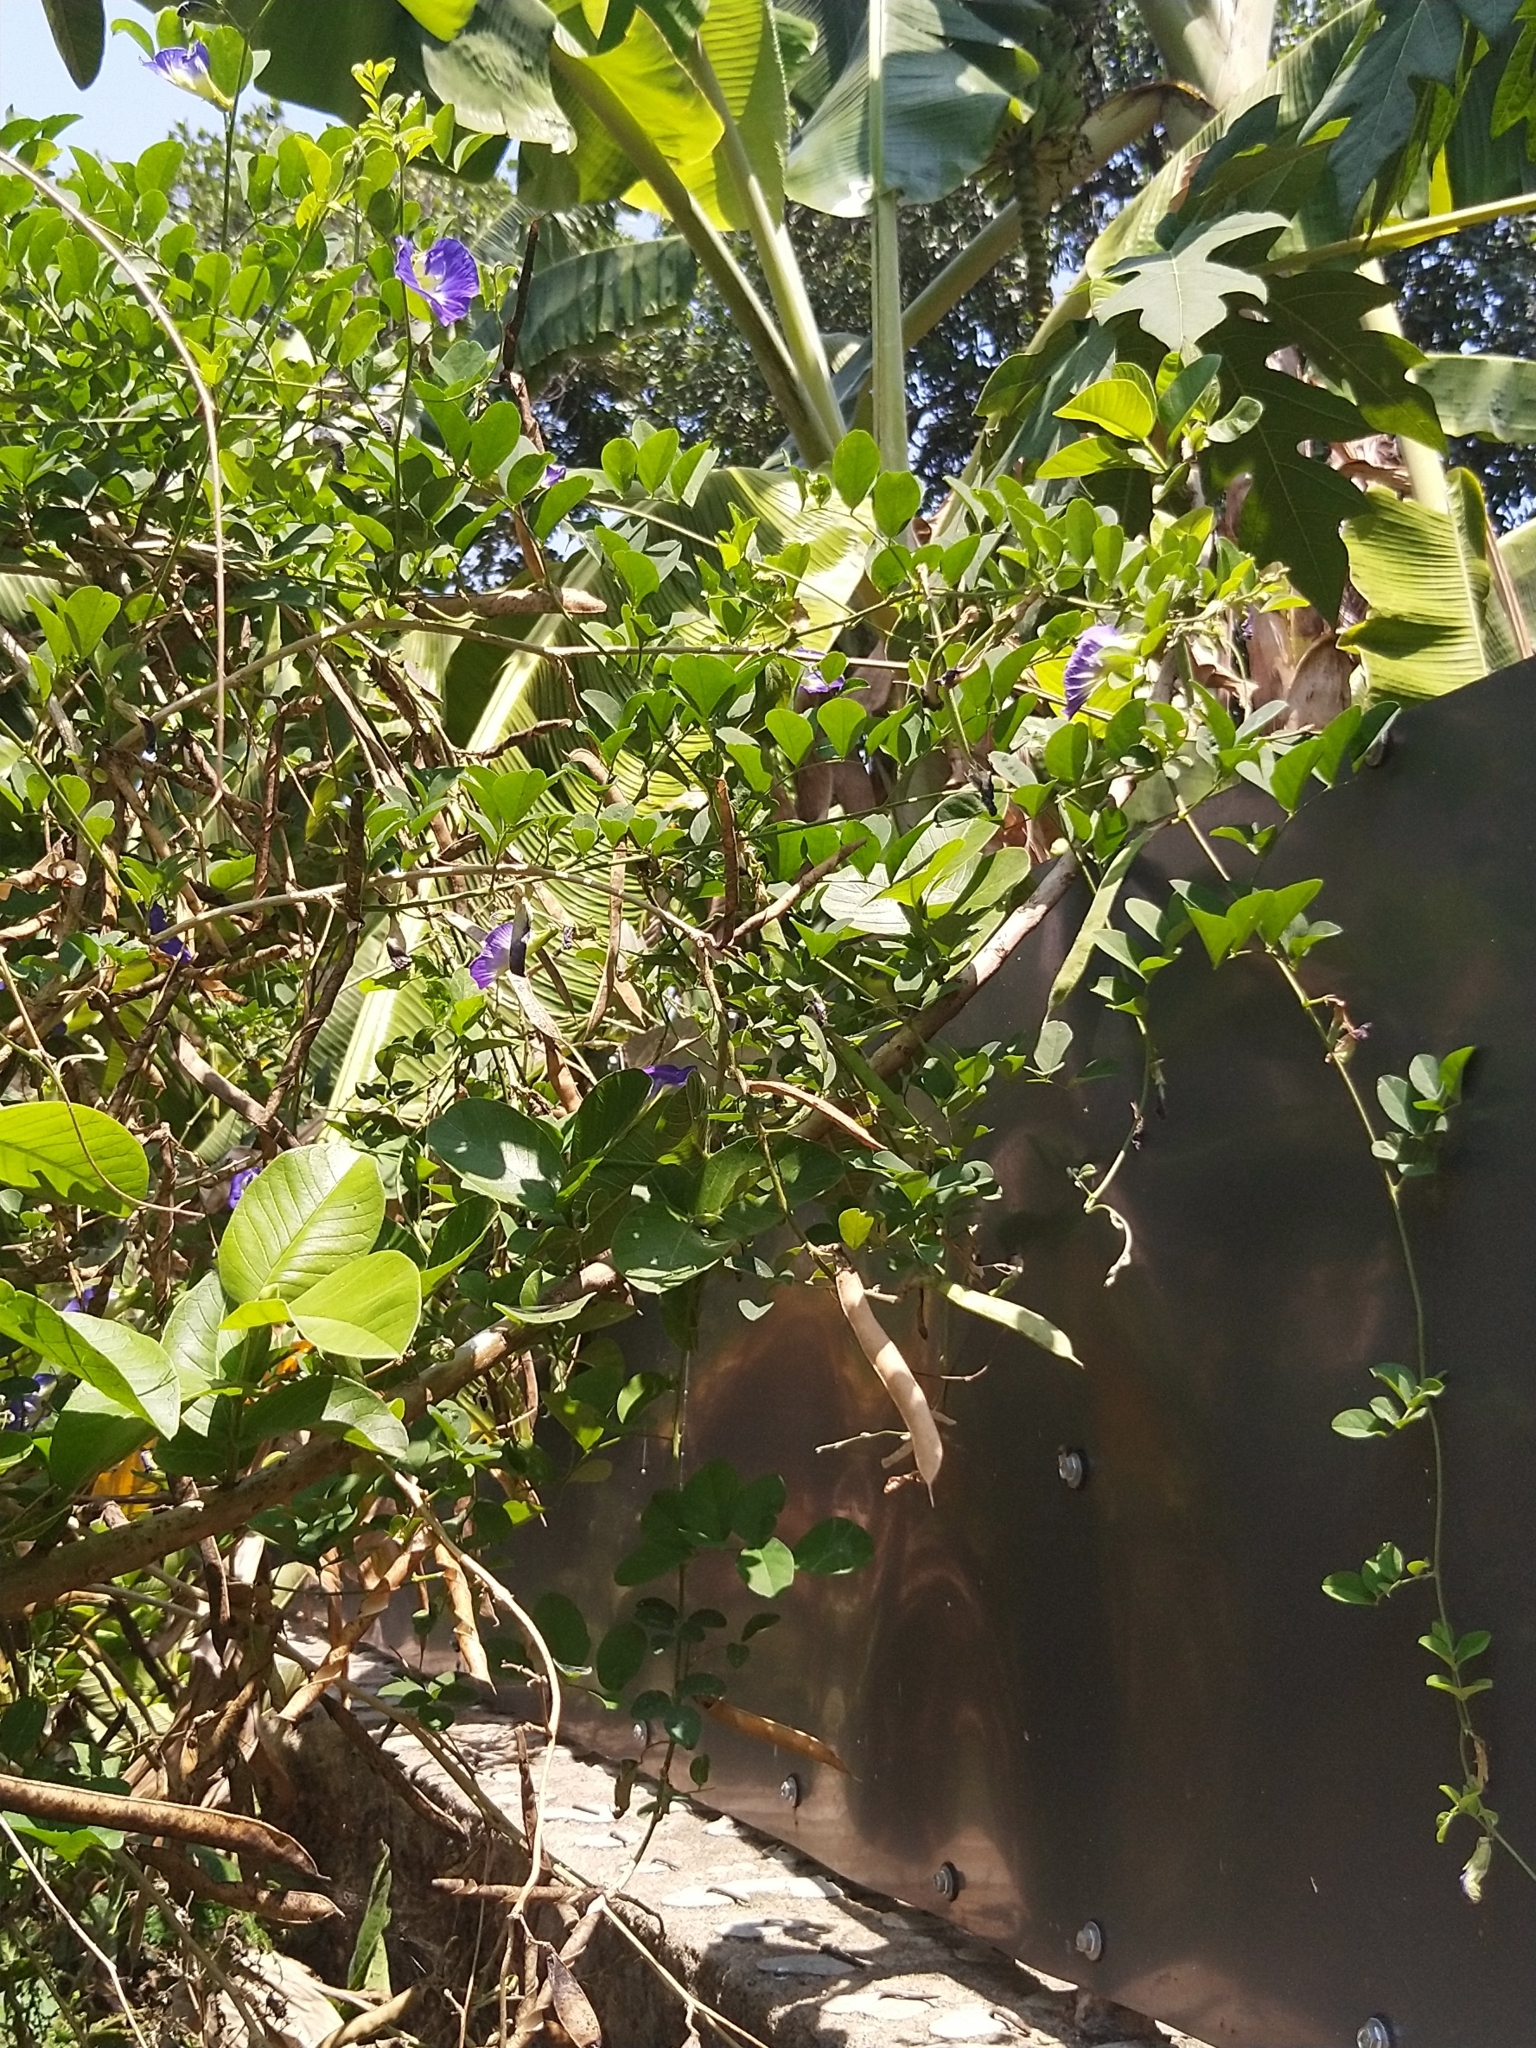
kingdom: Plantae
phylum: Tracheophyta
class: Magnoliopsida
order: Fabales
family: Fabaceae
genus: Clitoria
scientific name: Clitoria ternatea
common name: Asian pigeonwings
